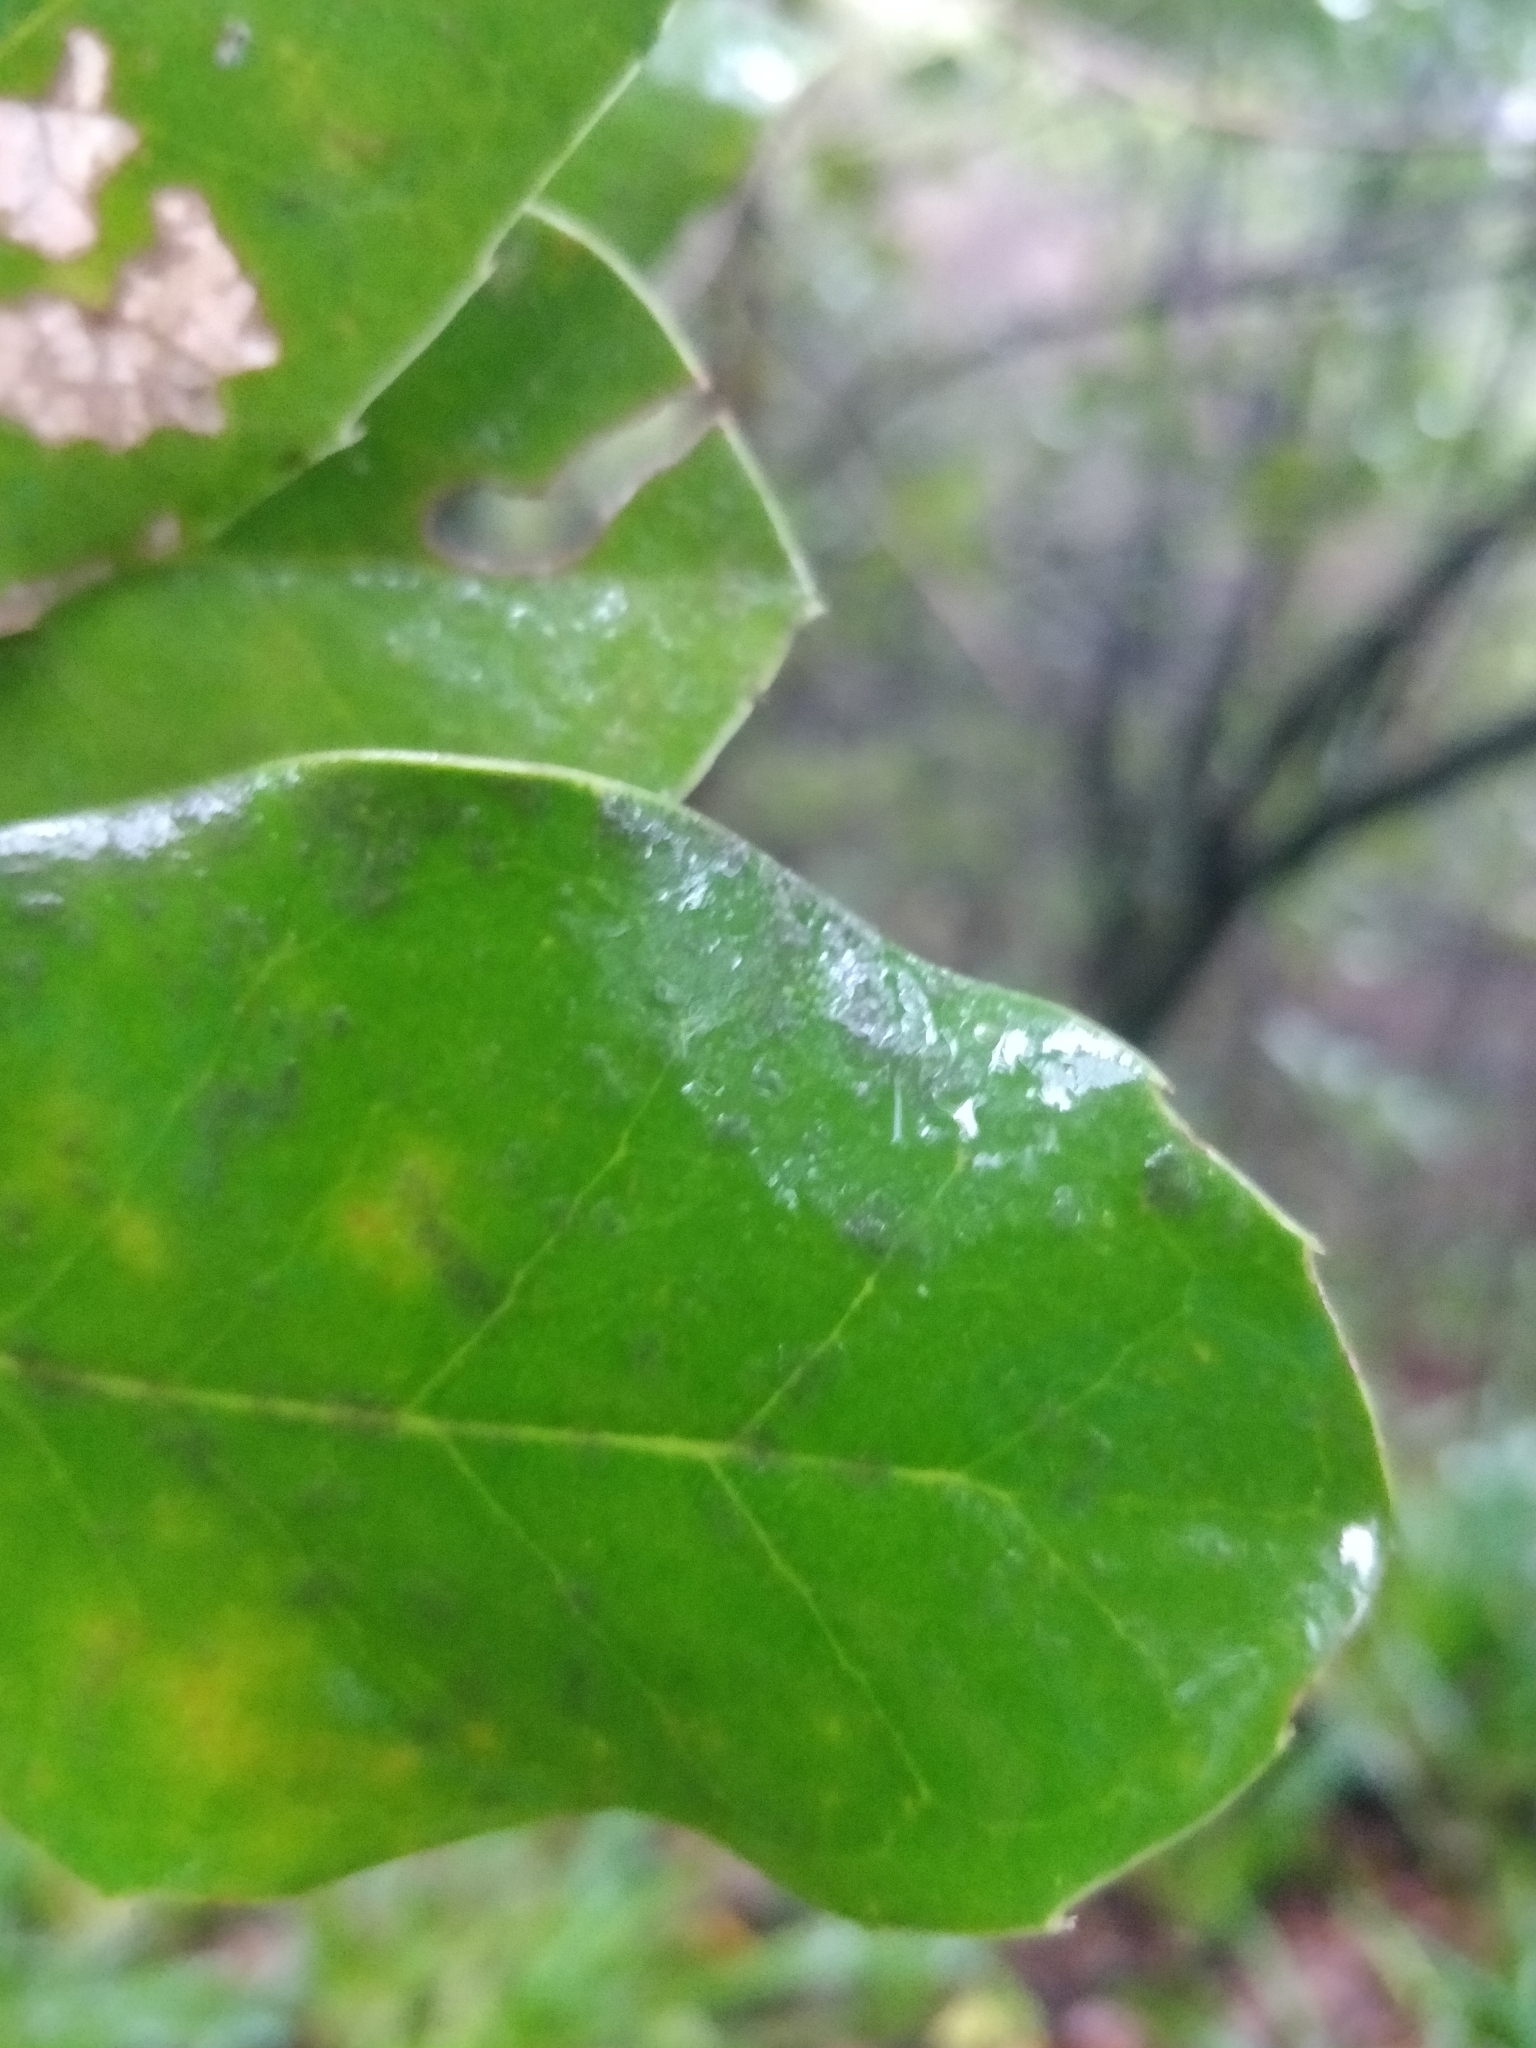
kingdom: Plantae
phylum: Tracheophyta
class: Magnoliopsida
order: Aquifoliales
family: Aquifoliaceae
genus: Ilex
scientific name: Ilex perado
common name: Madeira holly
